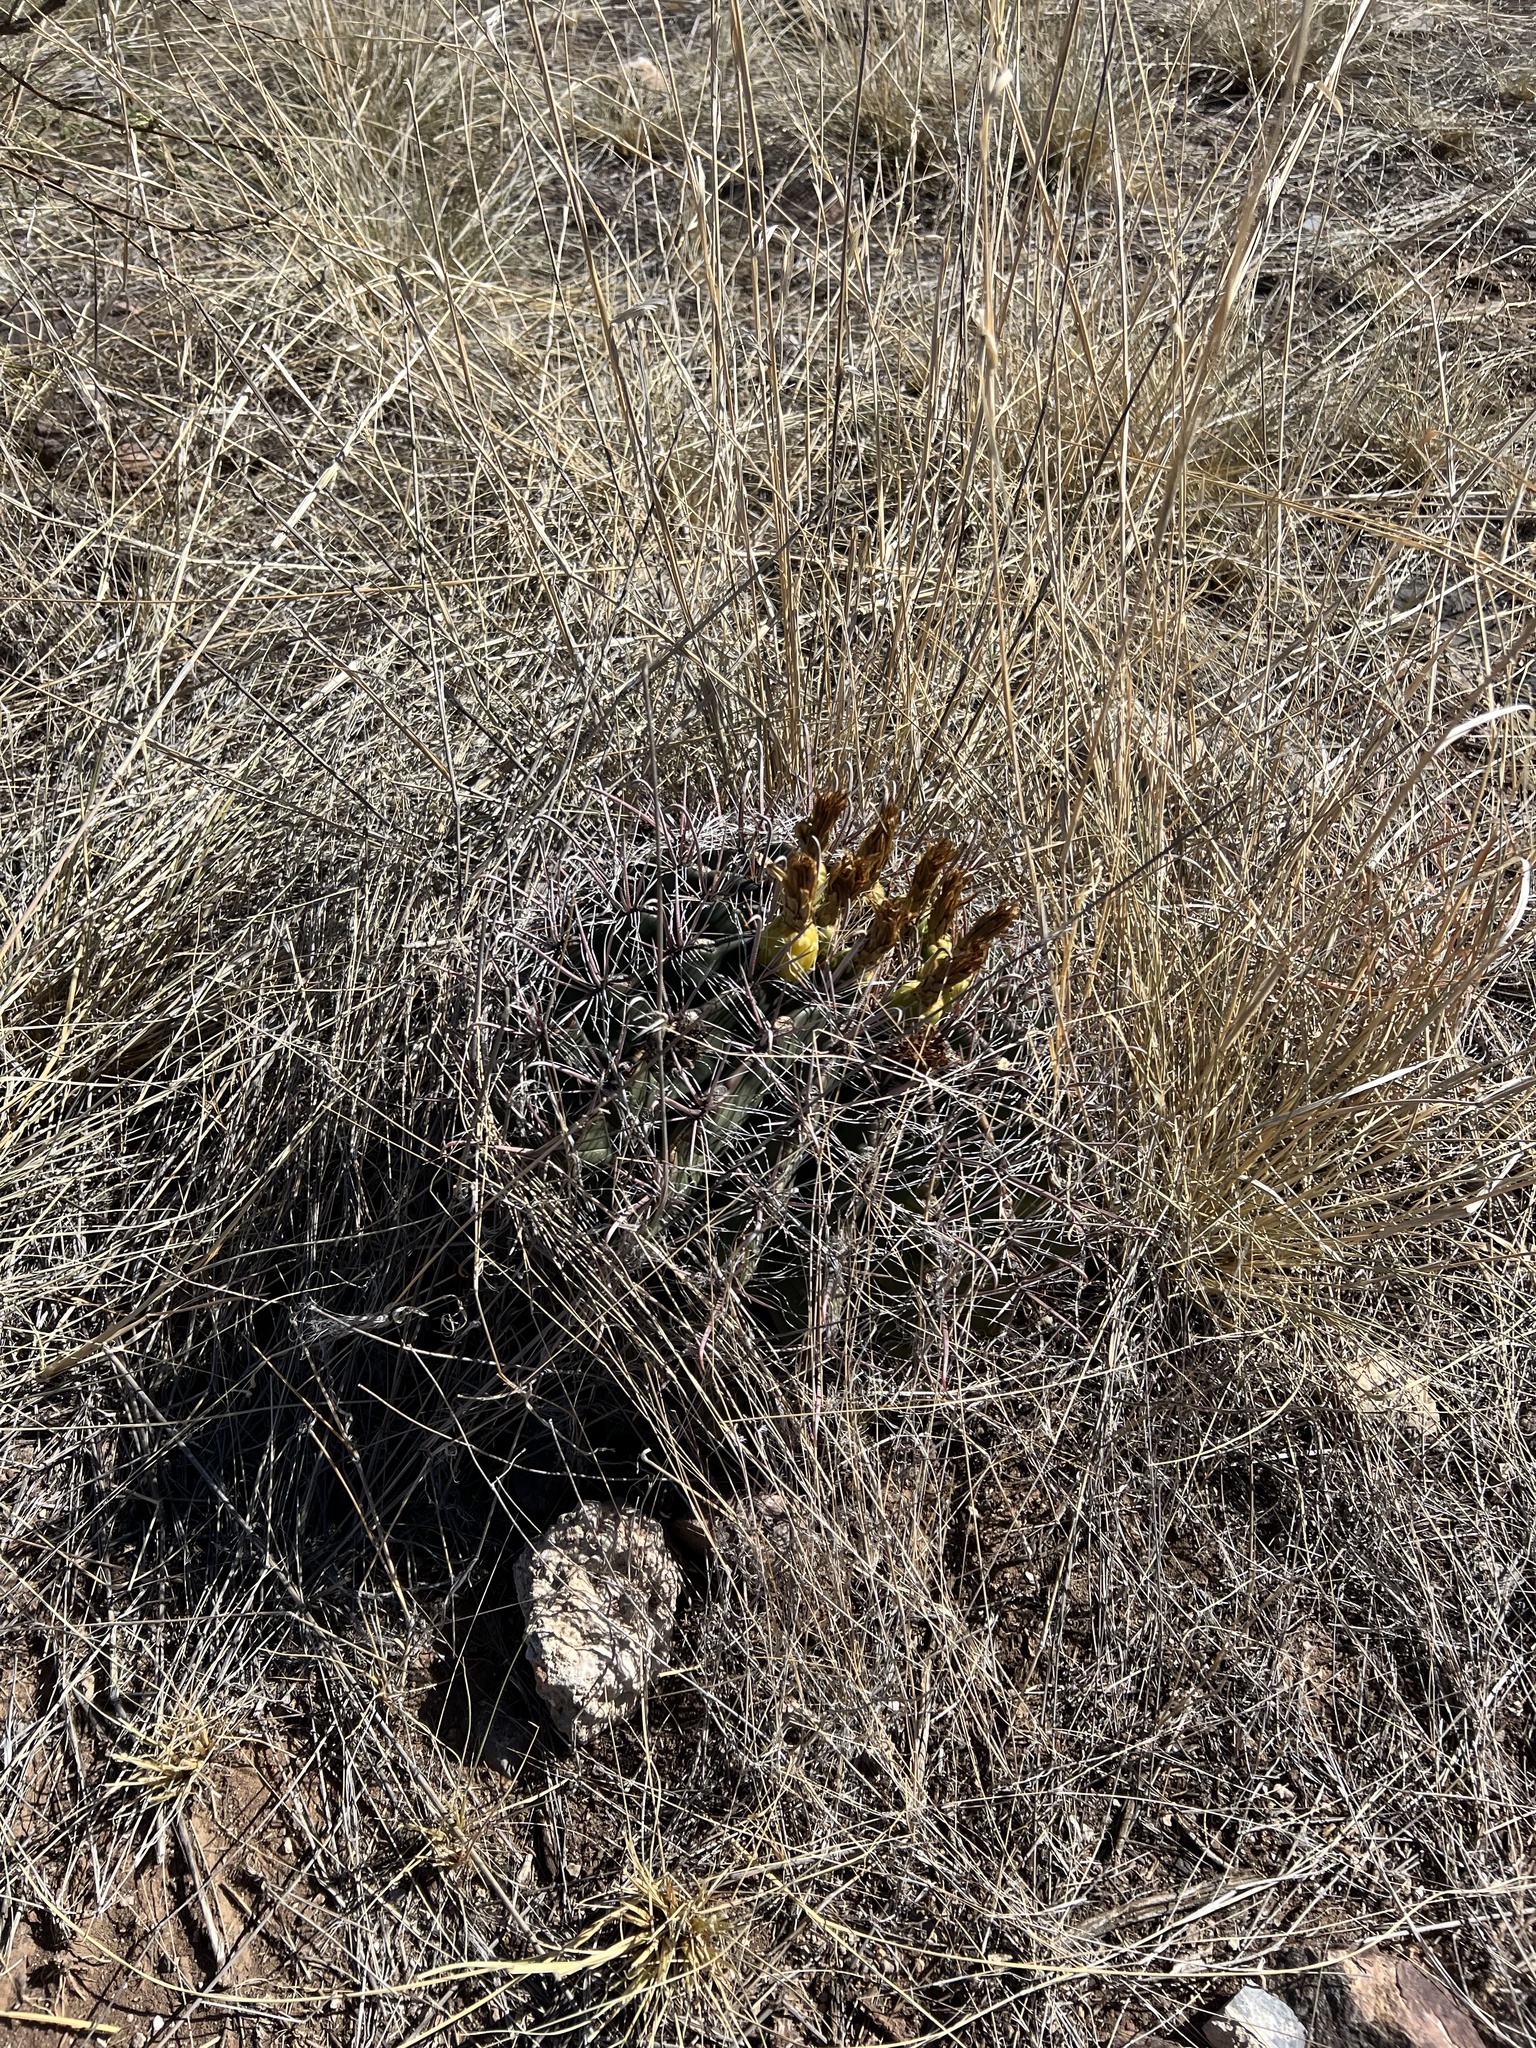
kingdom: Plantae
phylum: Tracheophyta
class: Magnoliopsida
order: Caryophyllales
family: Cactaceae
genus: Ferocactus
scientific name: Ferocactus wislizeni
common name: Candy barrel cactus
